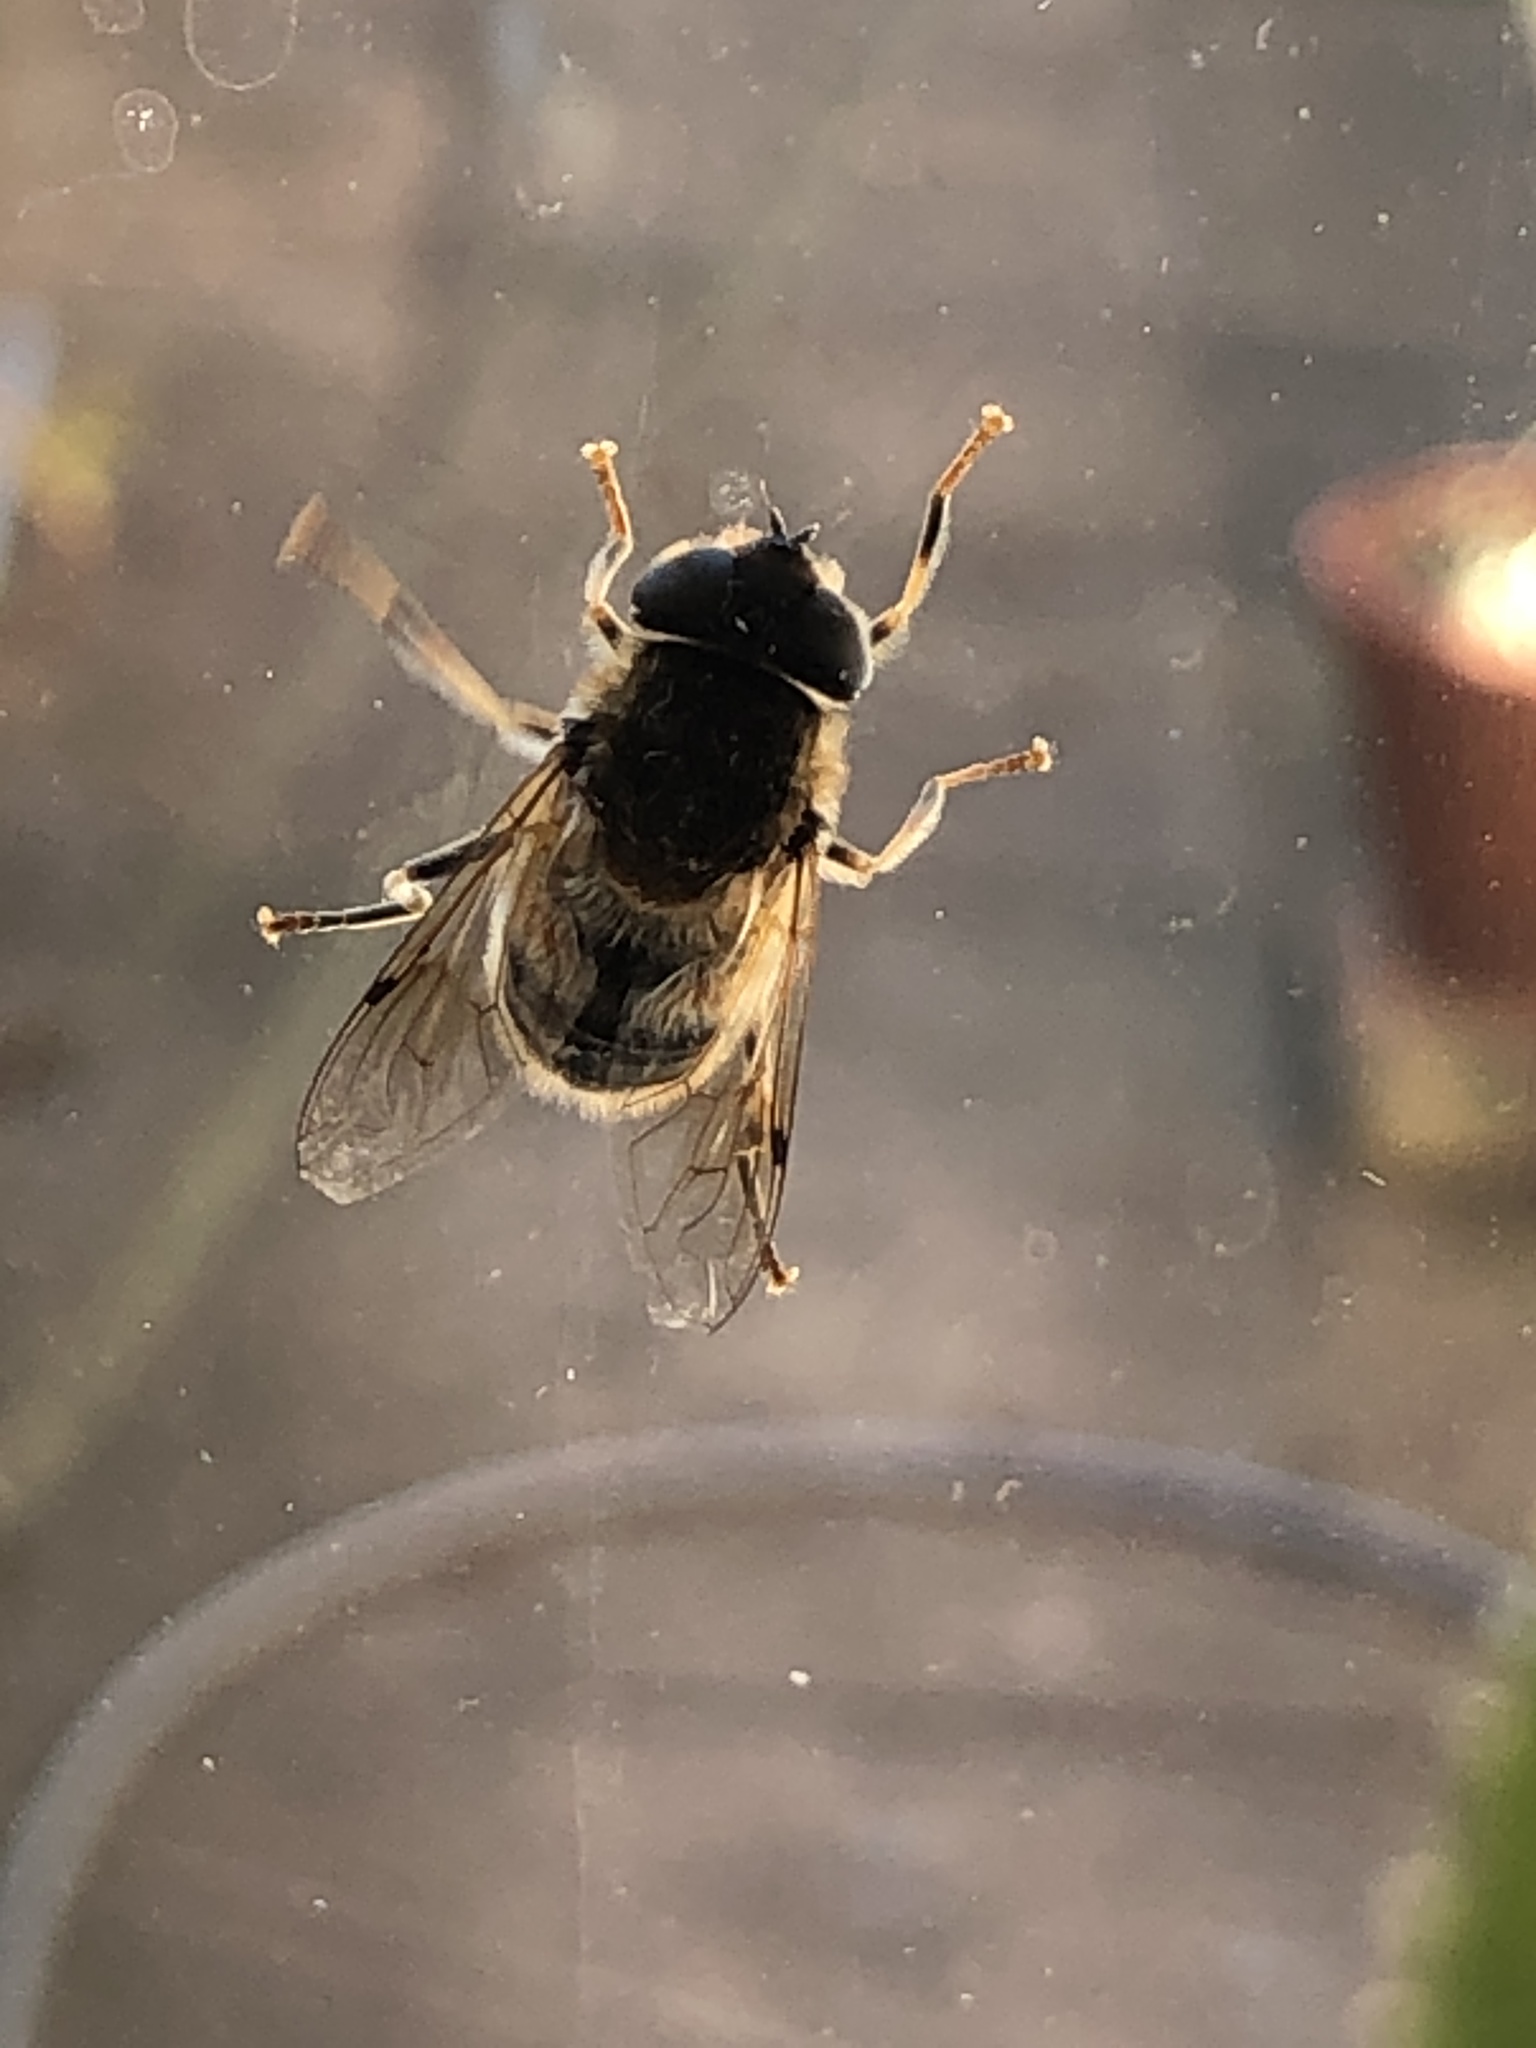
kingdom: Animalia
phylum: Arthropoda
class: Insecta
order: Diptera
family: Syrphidae
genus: Eristalis
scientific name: Eristalis pertinax
